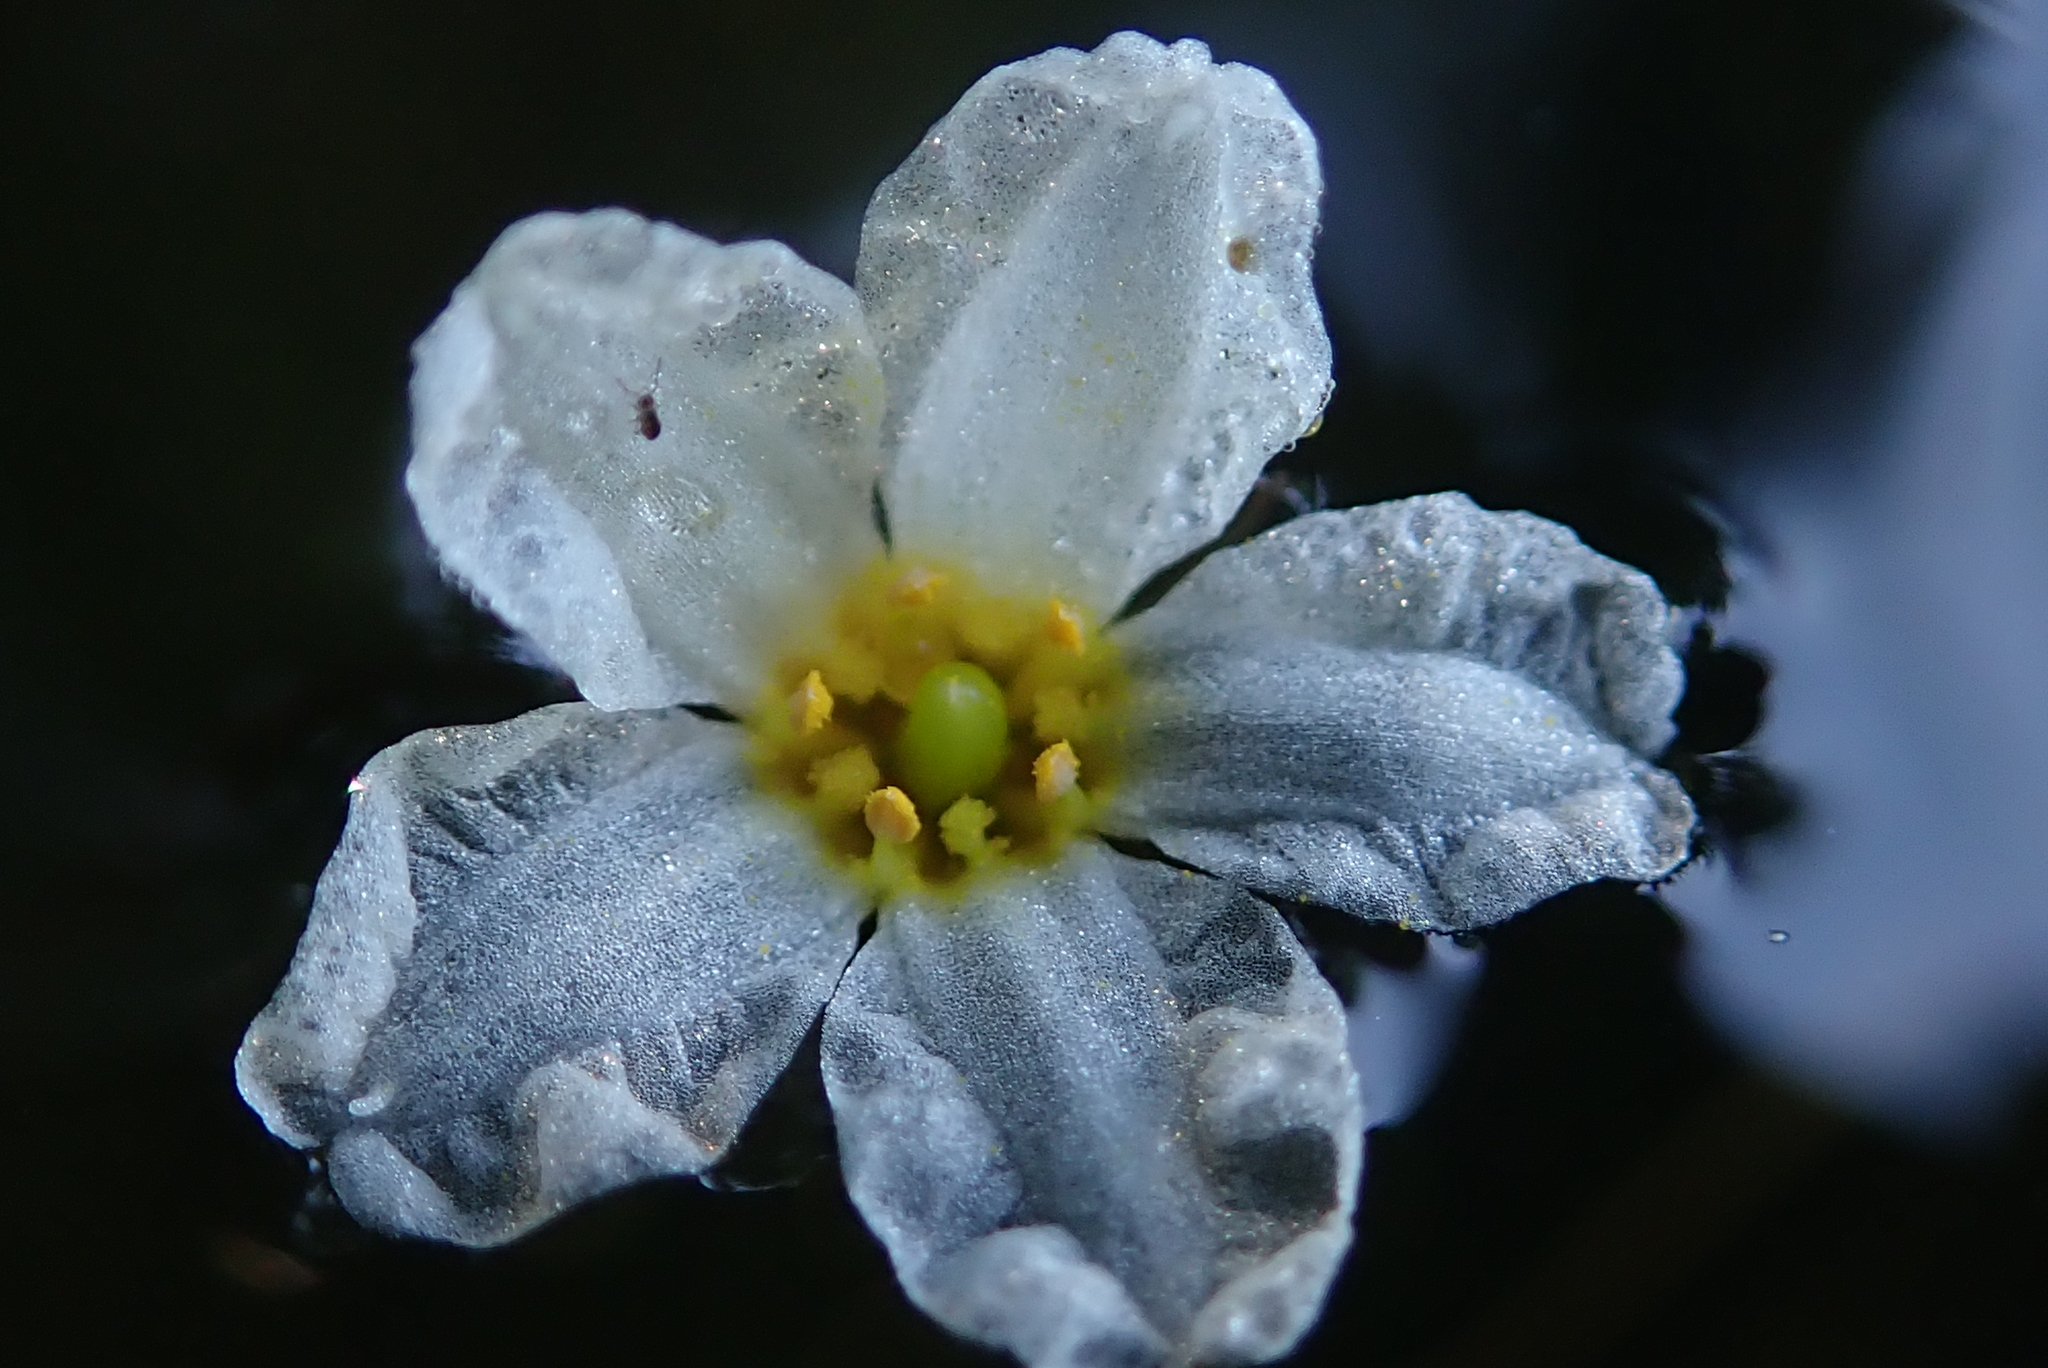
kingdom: Plantae
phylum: Tracheophyta
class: Magnoliopsida
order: Asterales
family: Menyanthaceae
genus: Nymphoides
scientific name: Nymphoides cordata
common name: Eight-angled floatingheart
